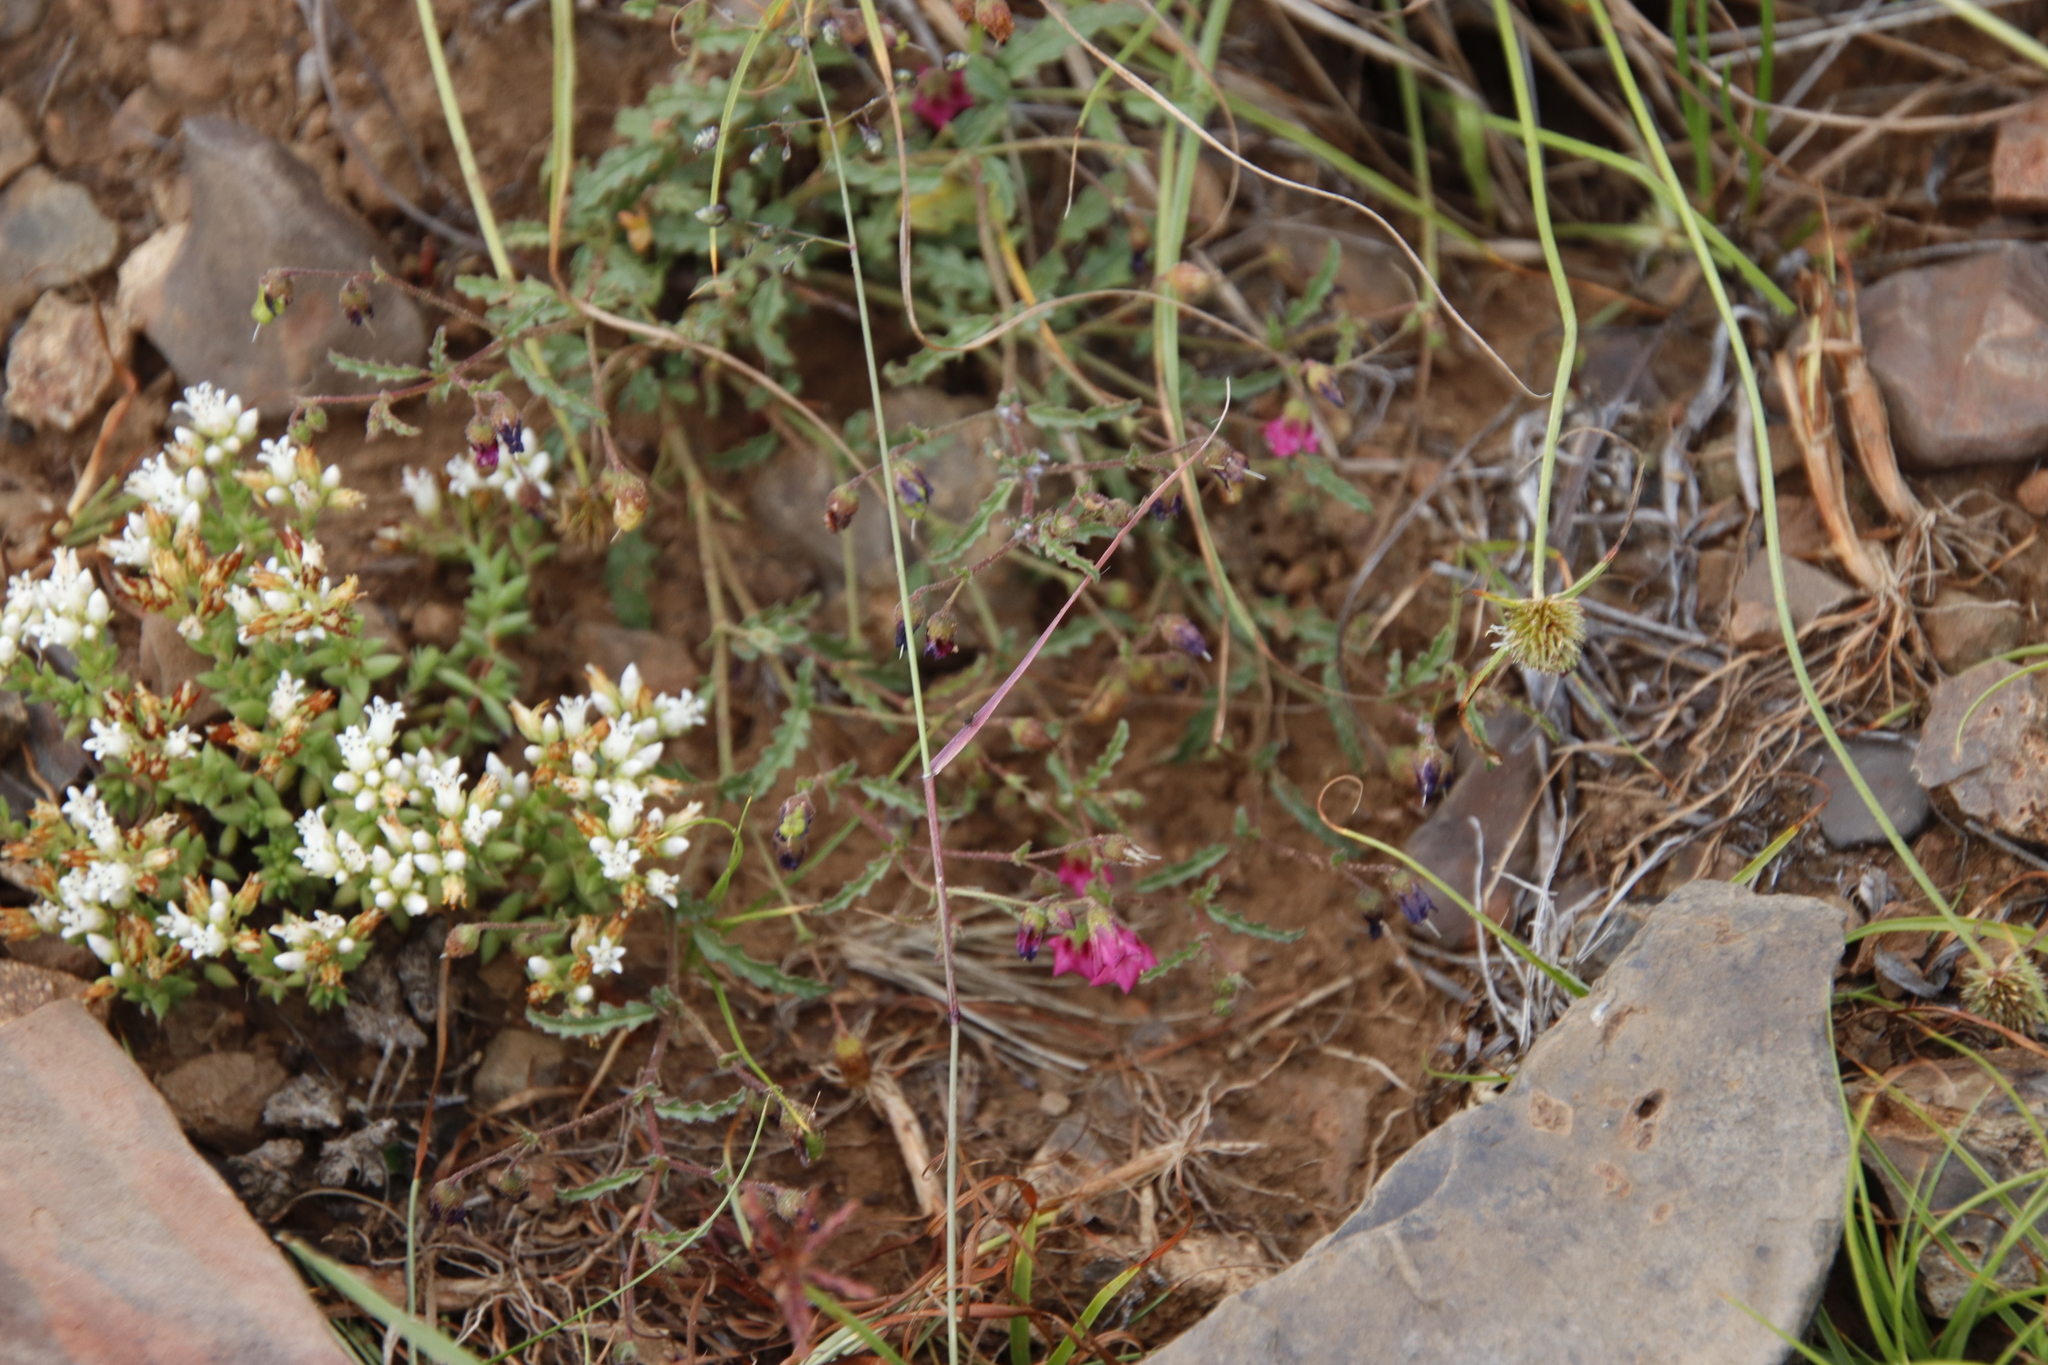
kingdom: Plantae
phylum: Tracheophyta
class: Magnoliopsida
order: Malvales
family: Malvaceae
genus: Hermannia
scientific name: Hermannia coccocarpa
